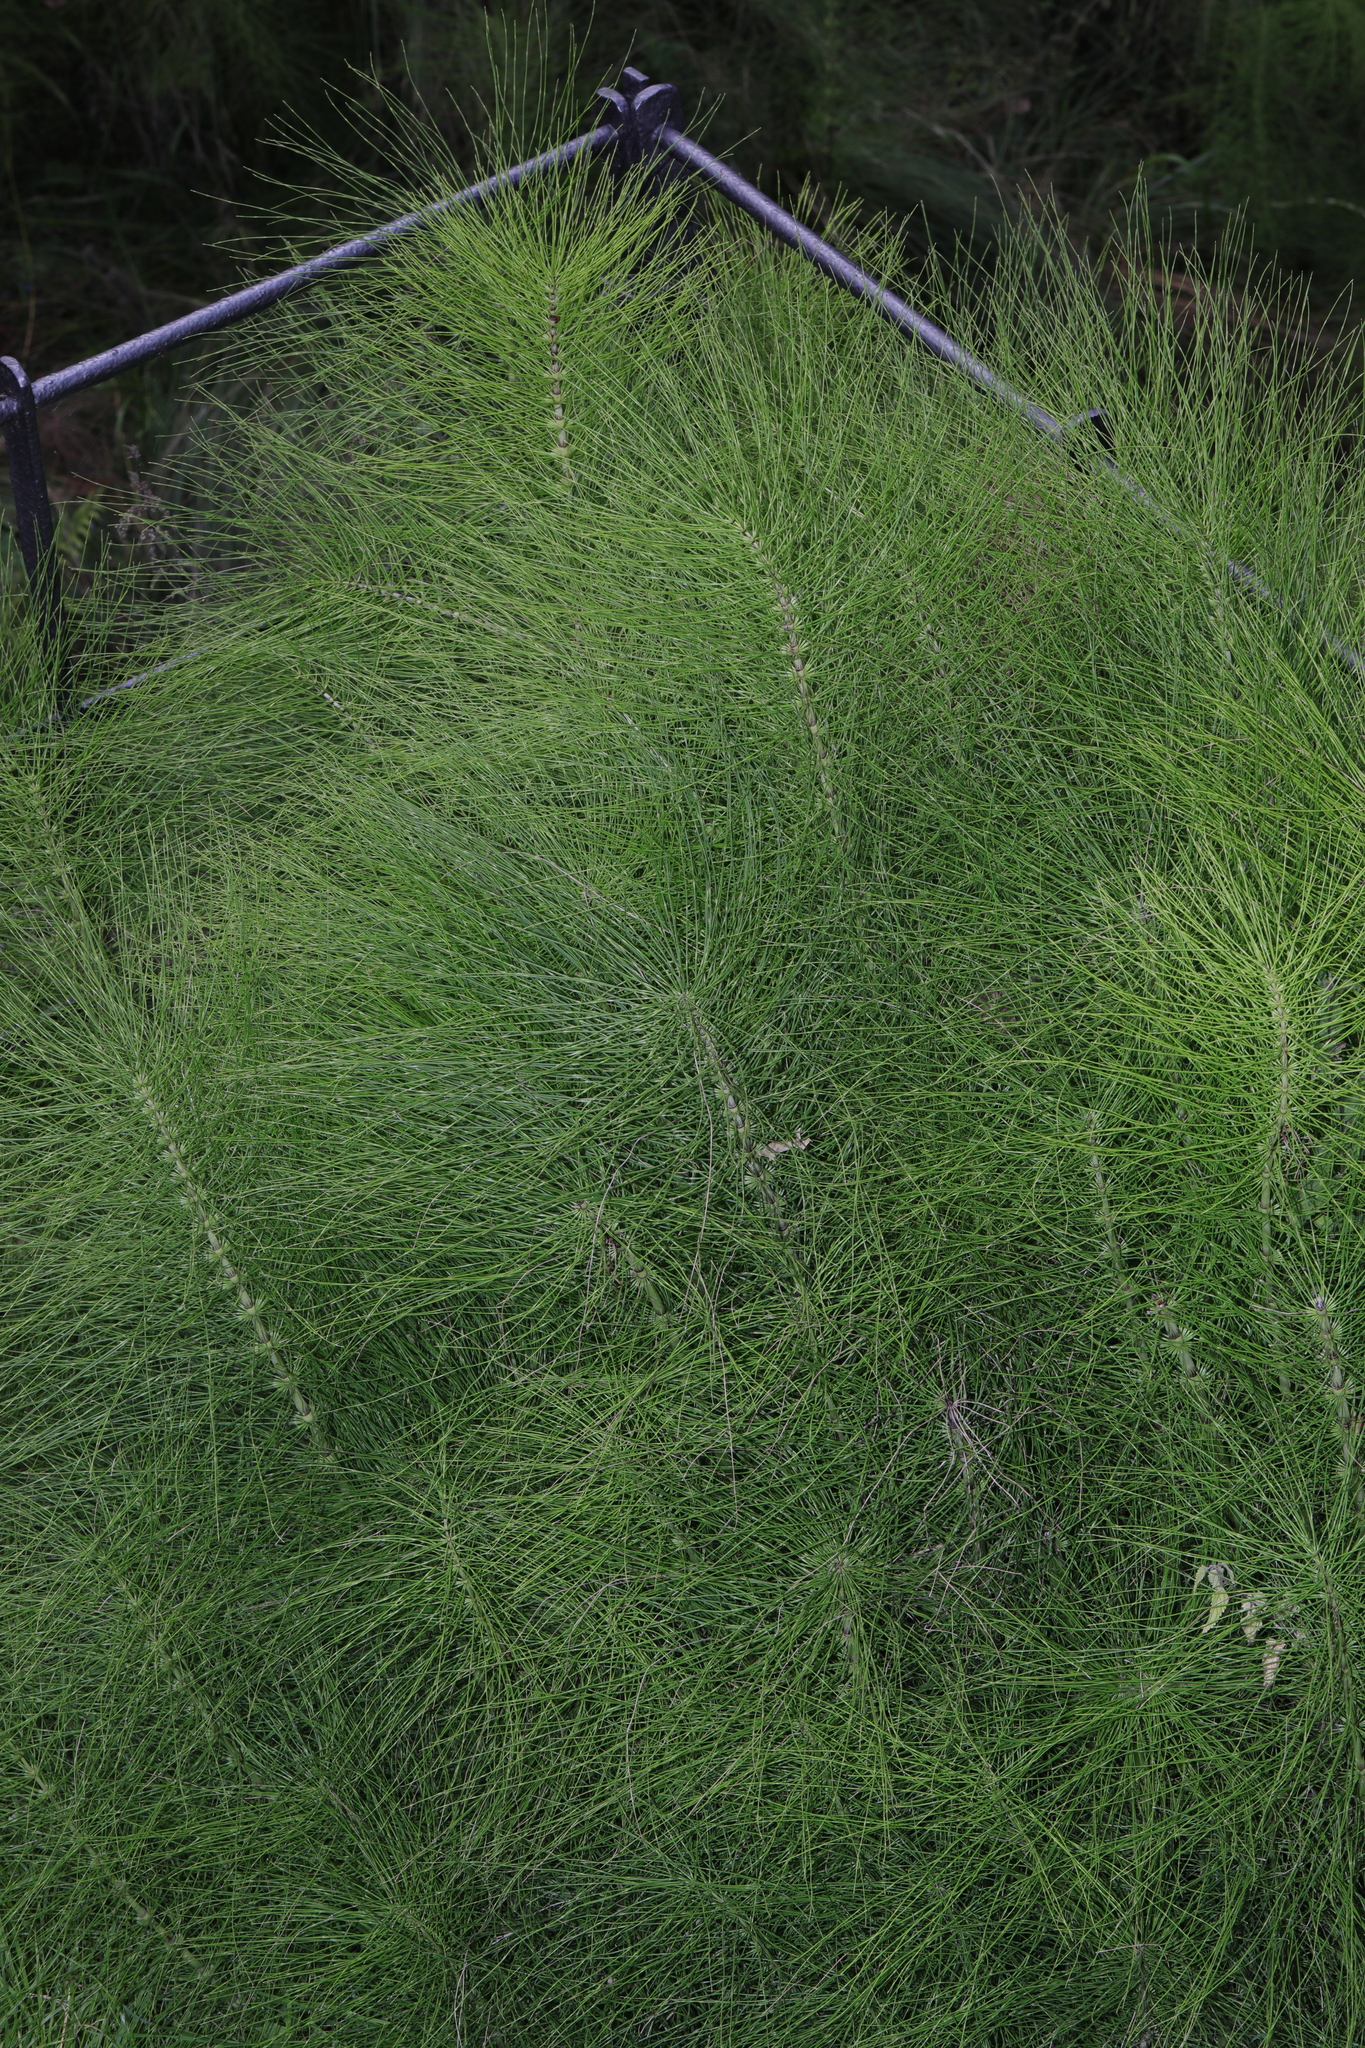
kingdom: Plantae
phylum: Tracheophyta
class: Polypodiopsida
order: Equisetales
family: Equisetaceae
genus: Equisetum
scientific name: Equisetum telmateia
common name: Great horsetail
